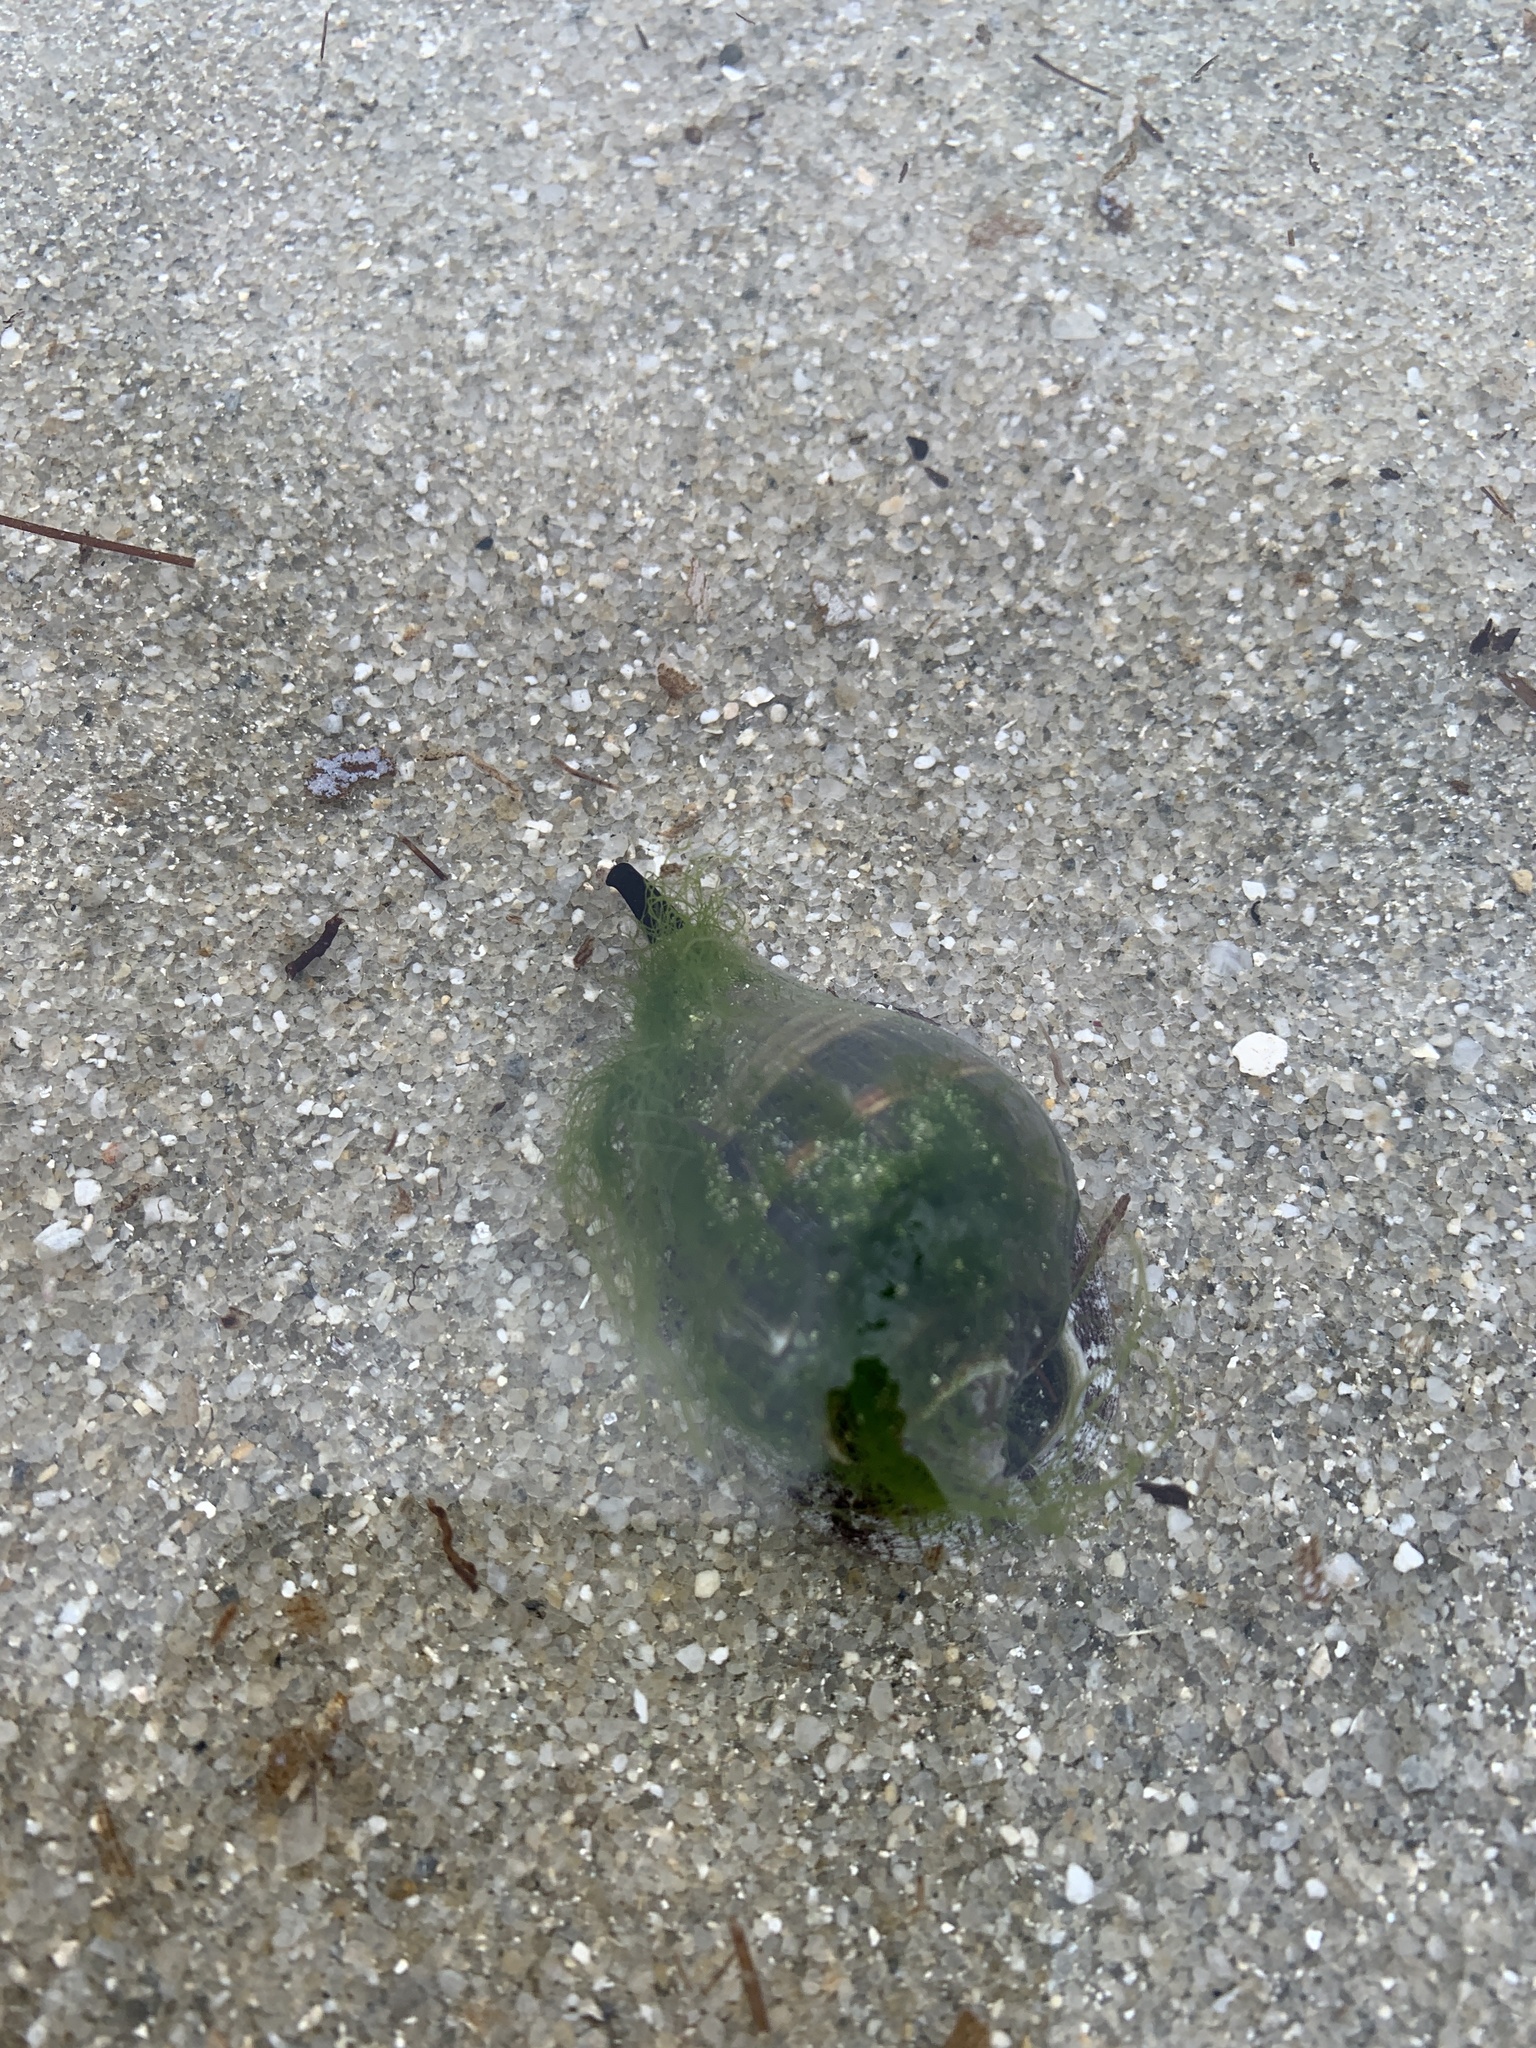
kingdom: Animalia
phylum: Mollusca
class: Gastropoda
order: Neogastropoda
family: Melongenidae
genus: Melongena
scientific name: Melongena melongena
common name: West indian crown conch
